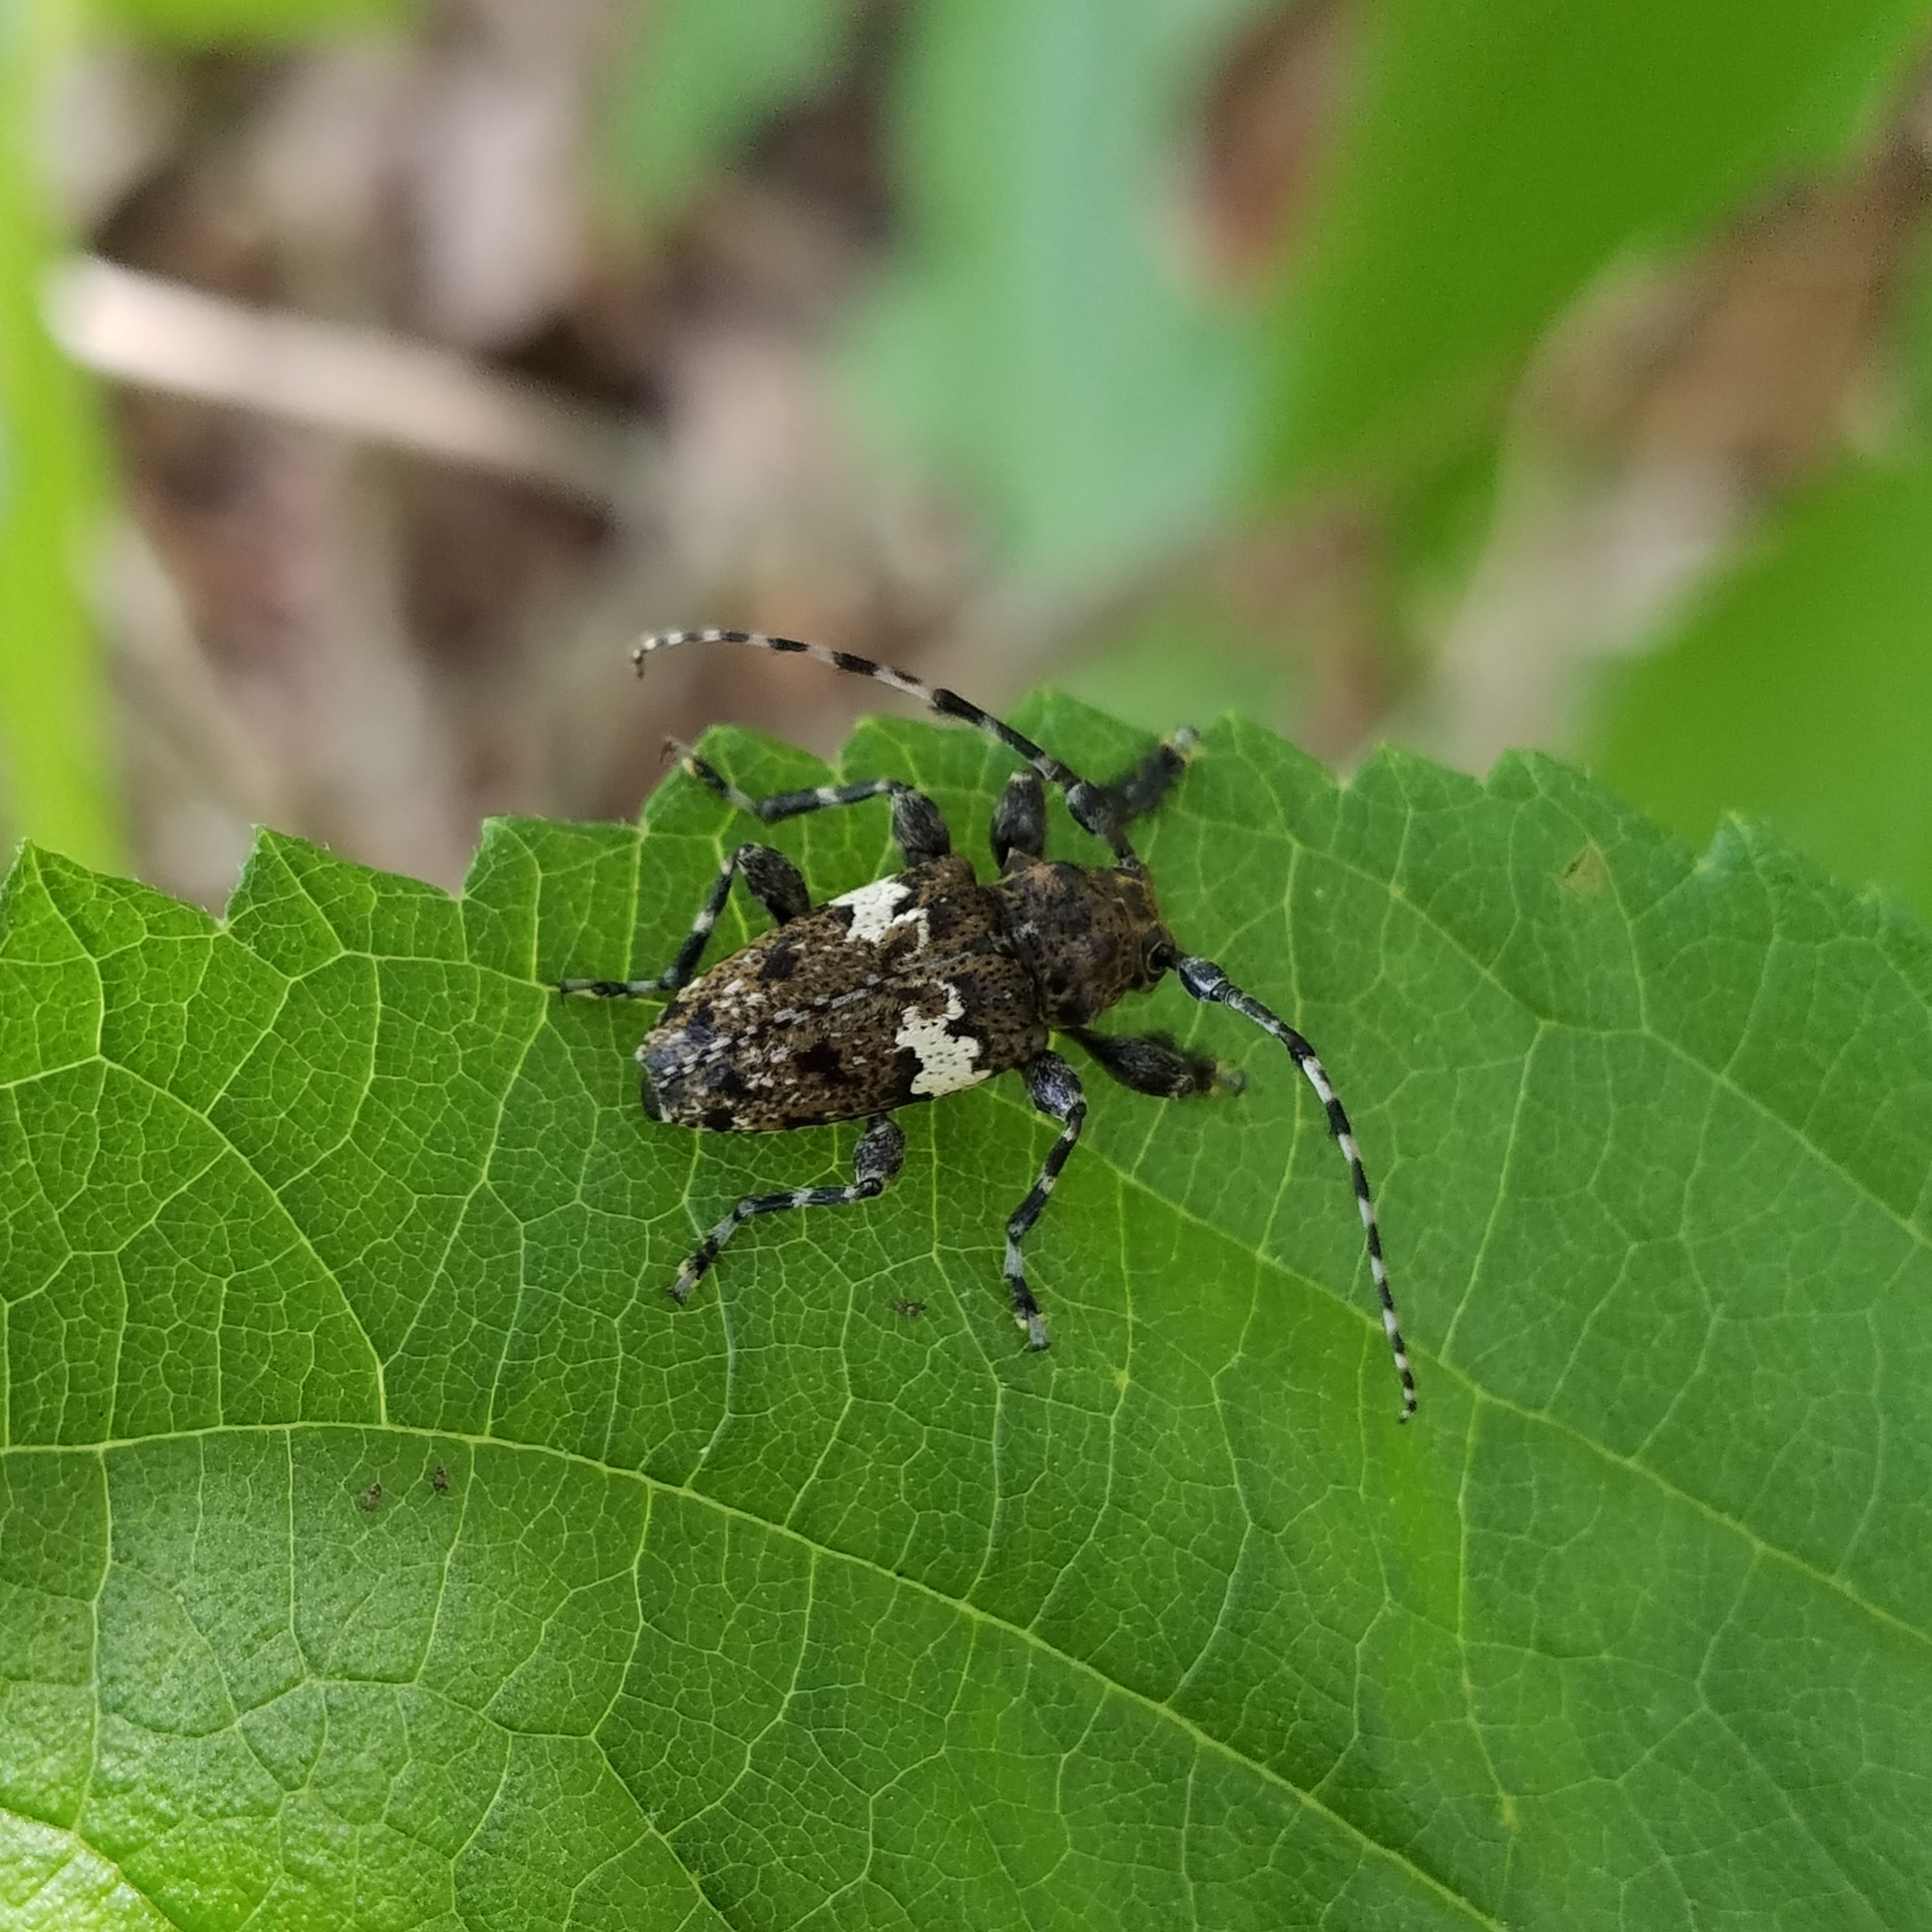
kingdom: Animalia
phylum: Arthropoda
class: Insecta
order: Coleoptera
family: Cerambycidae
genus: Acanthoderes
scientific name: Acanthoderes quadrigibba
